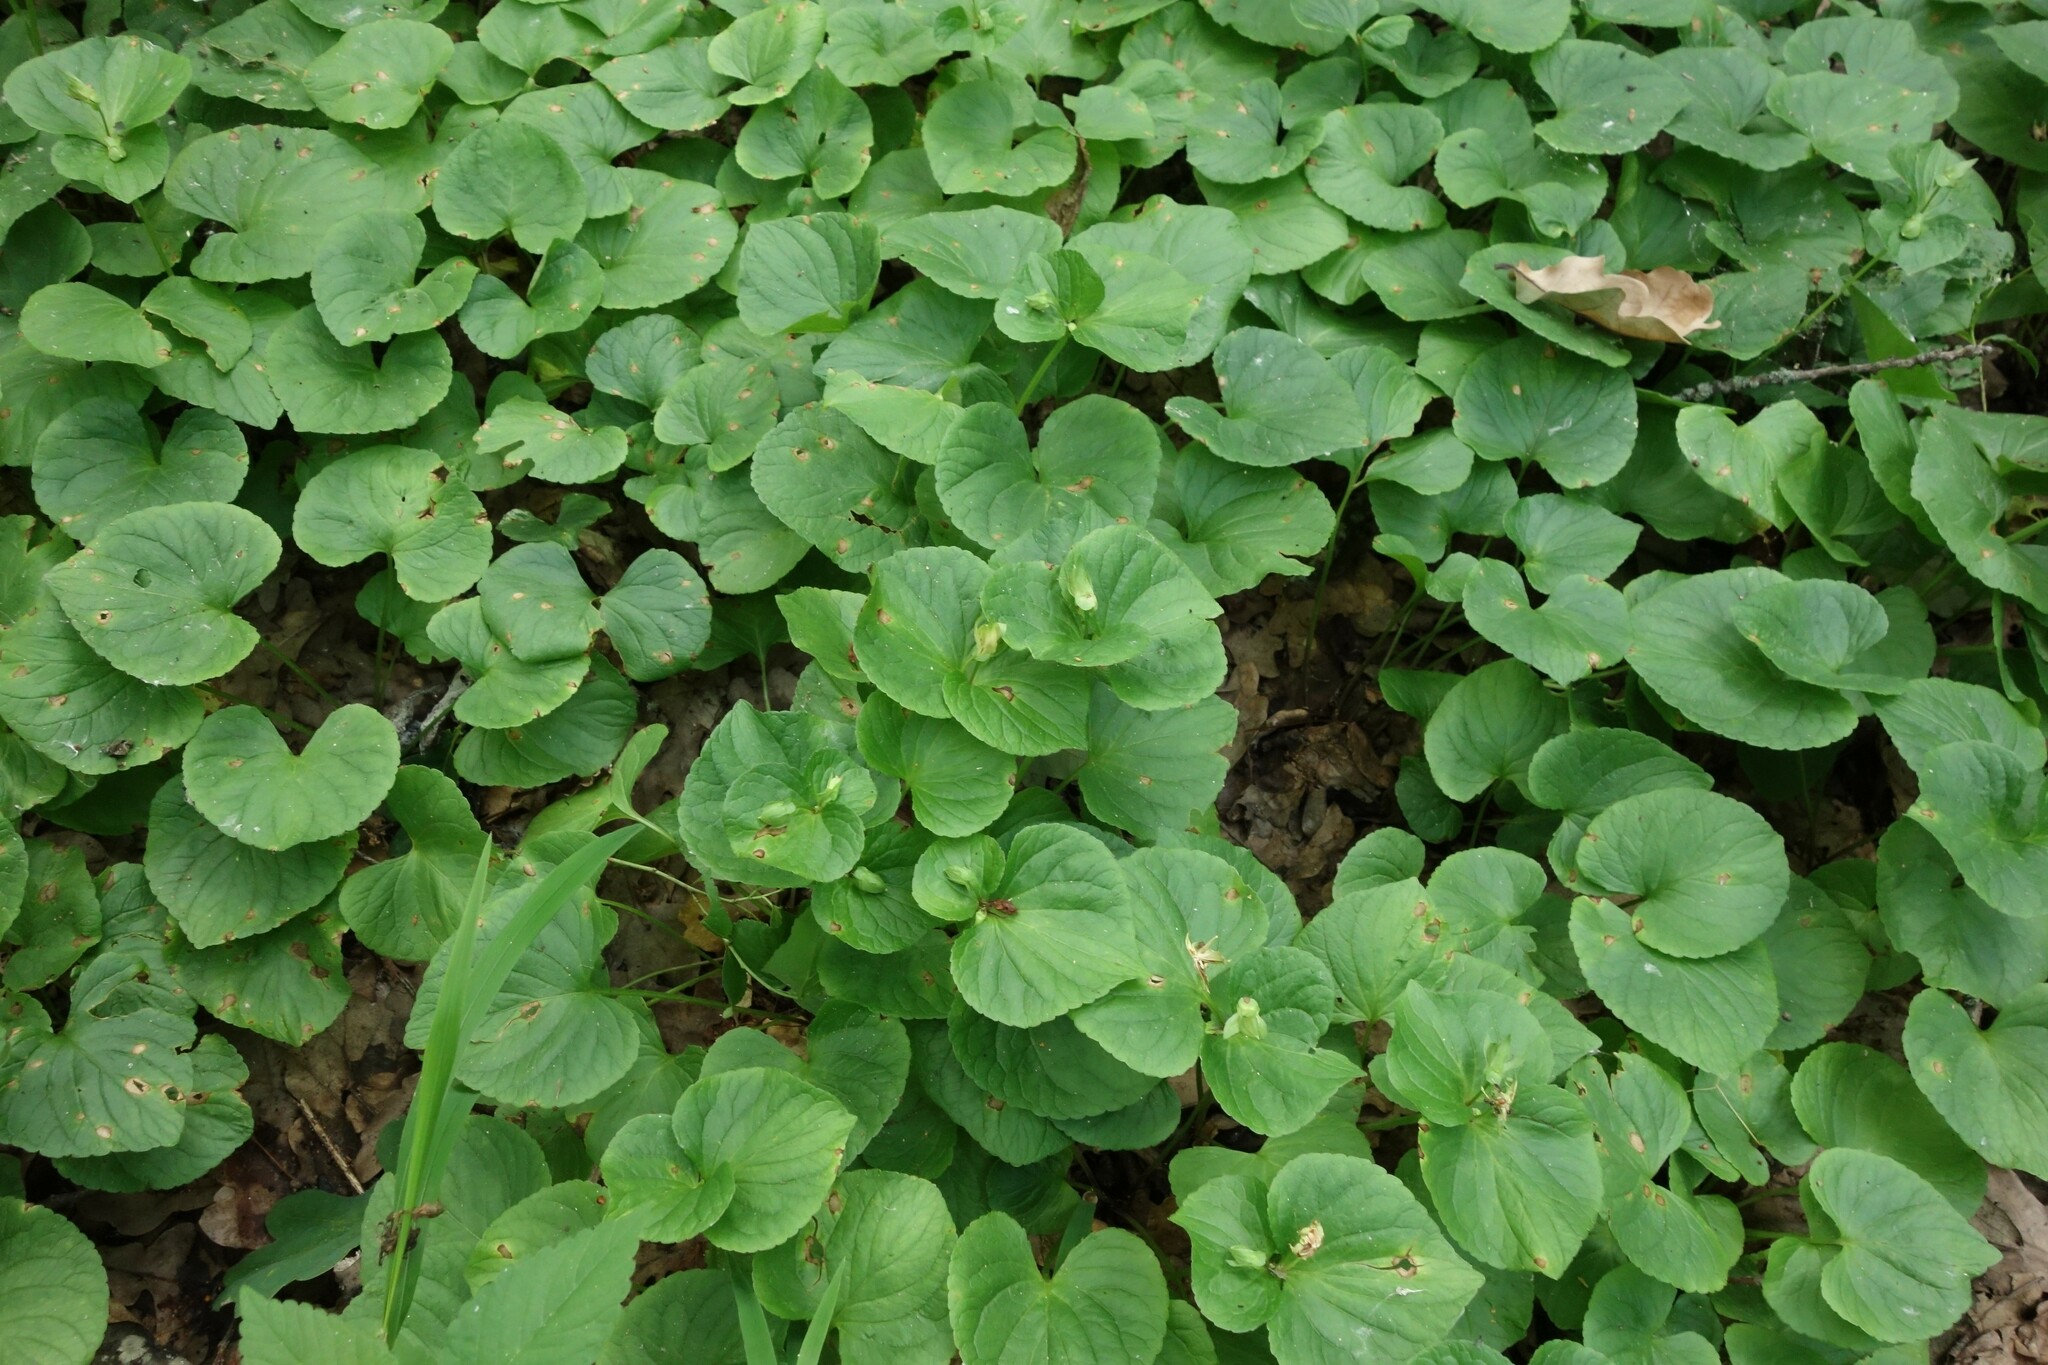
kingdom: Plantae
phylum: Tracheophyta
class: Magnoliopsida
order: Malpighiales
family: Violaceae
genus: Viola
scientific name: Viola mirabilis
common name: Wonder violet
